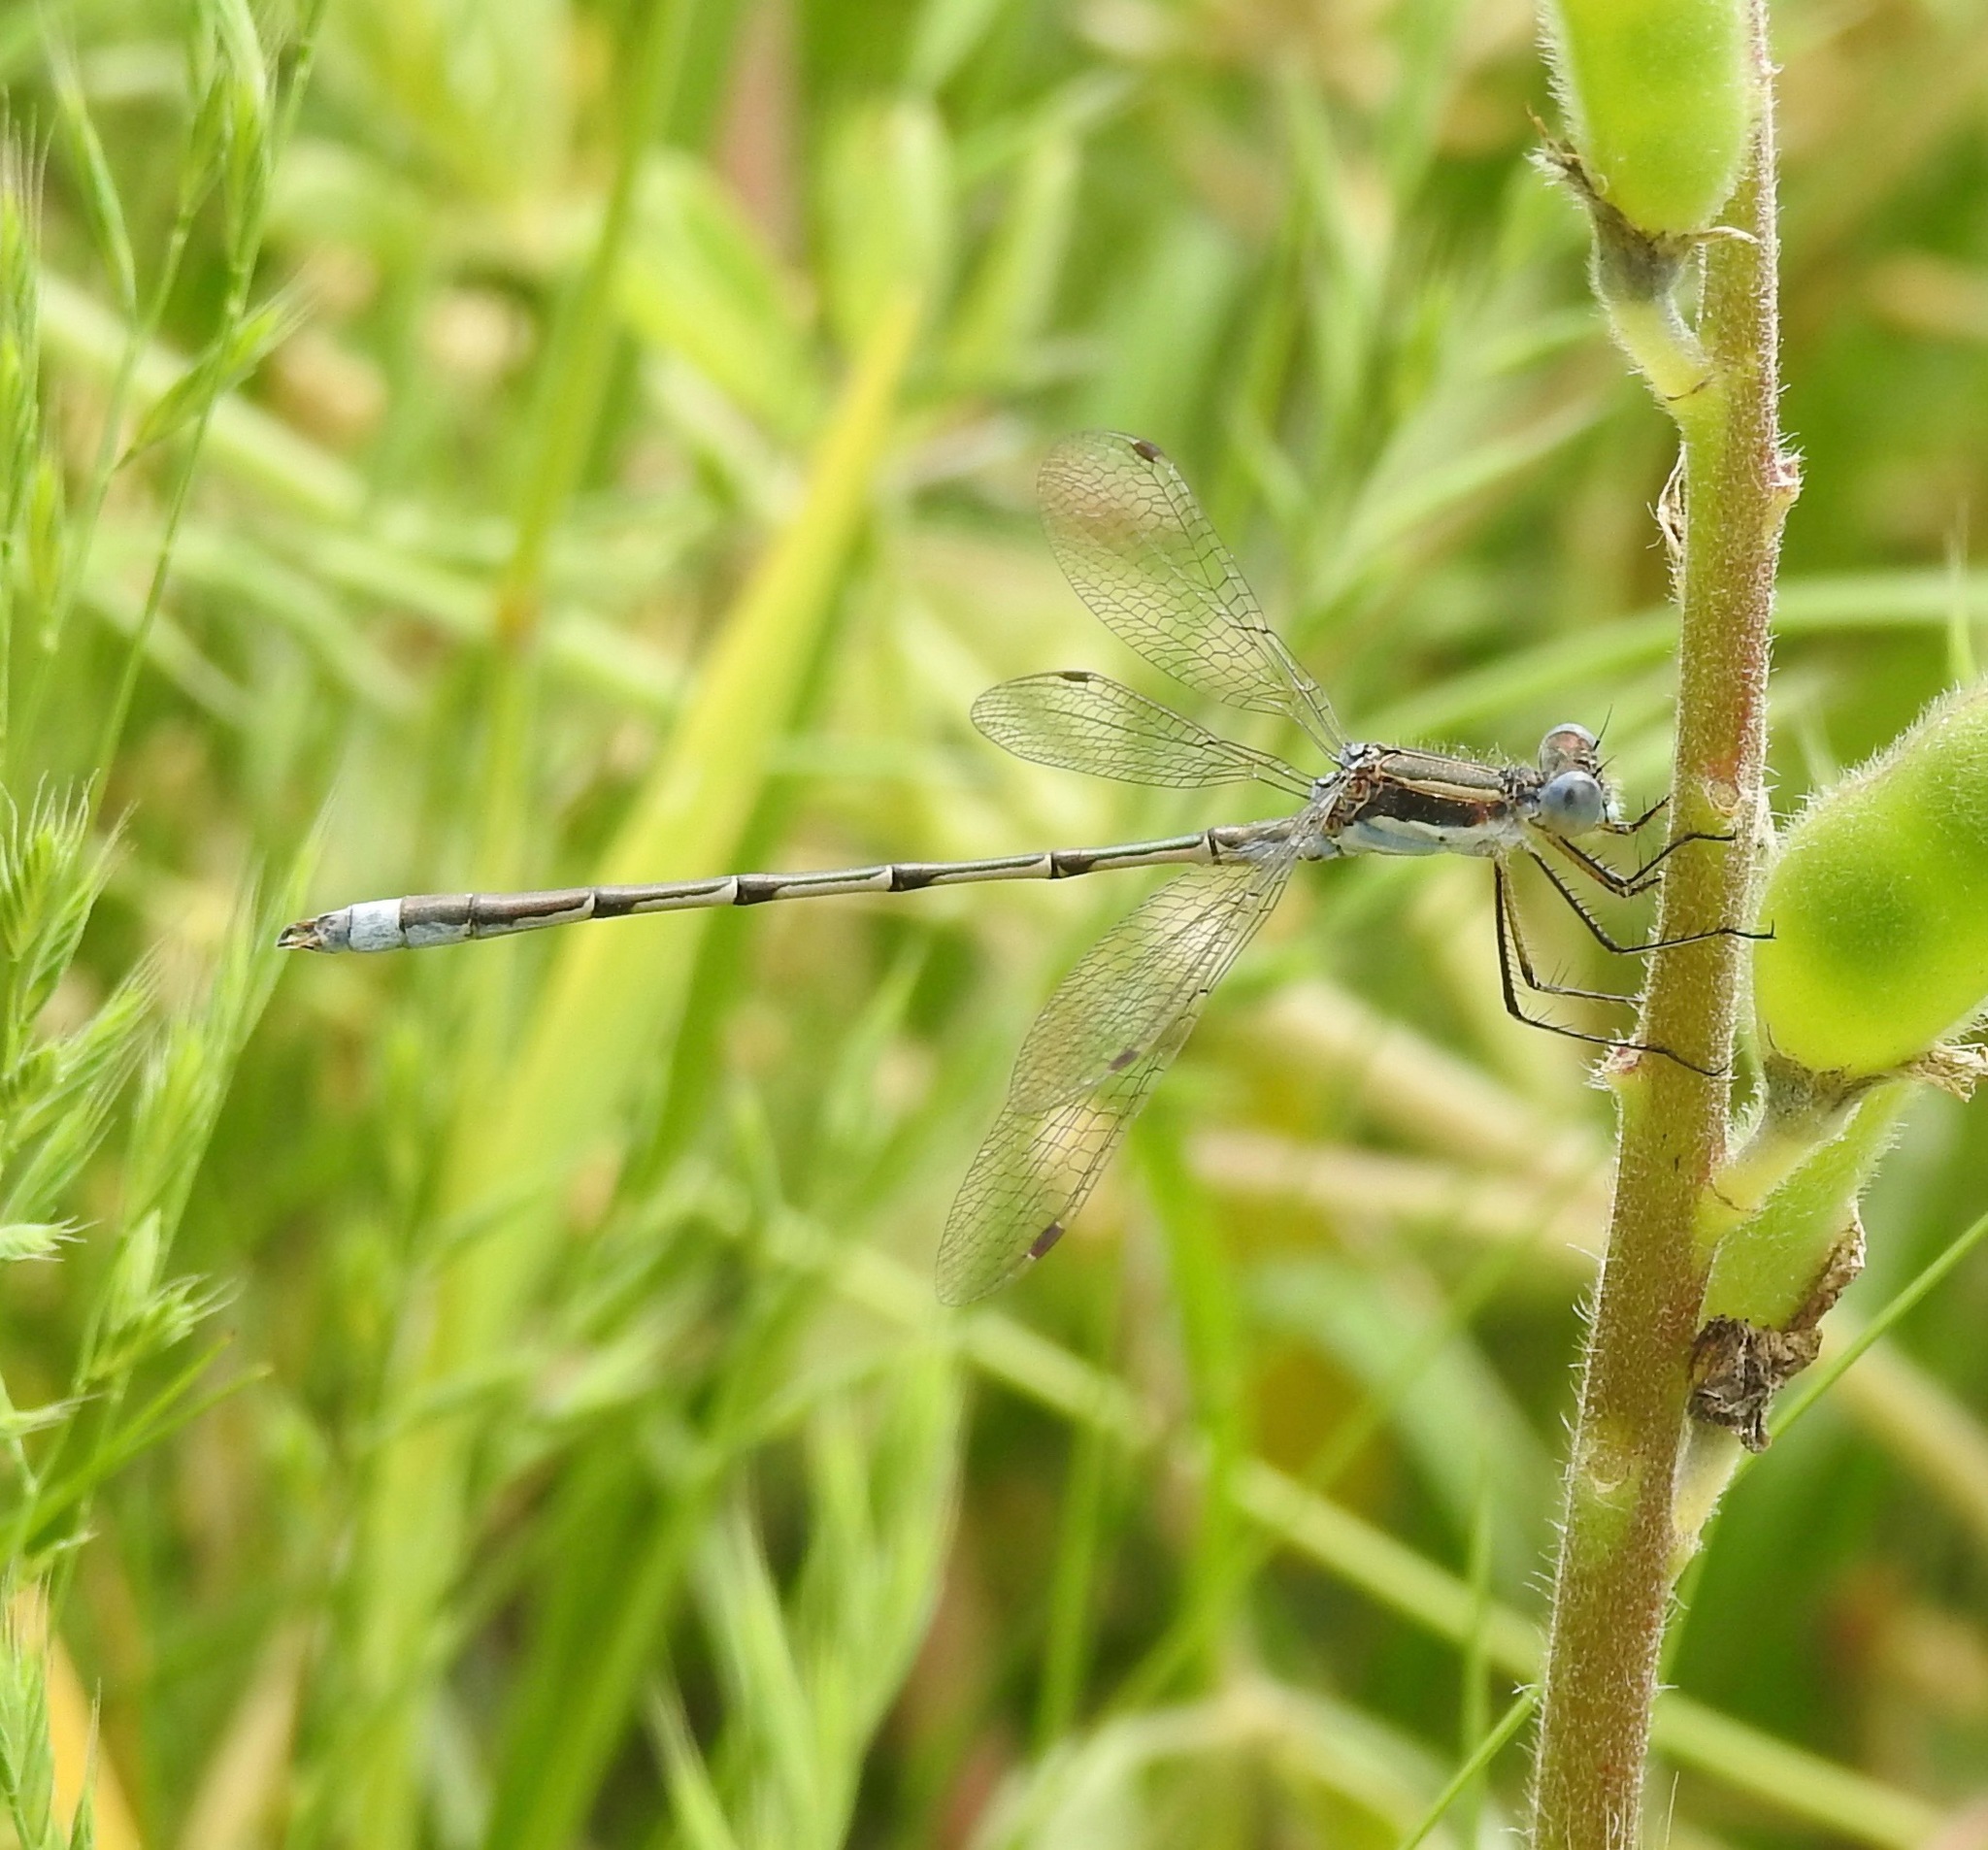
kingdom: Animalia
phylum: Arthropoda
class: Insecta
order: Odonata
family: Lestidae
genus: Lestes
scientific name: Lestes australis
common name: Southern spreadwing
